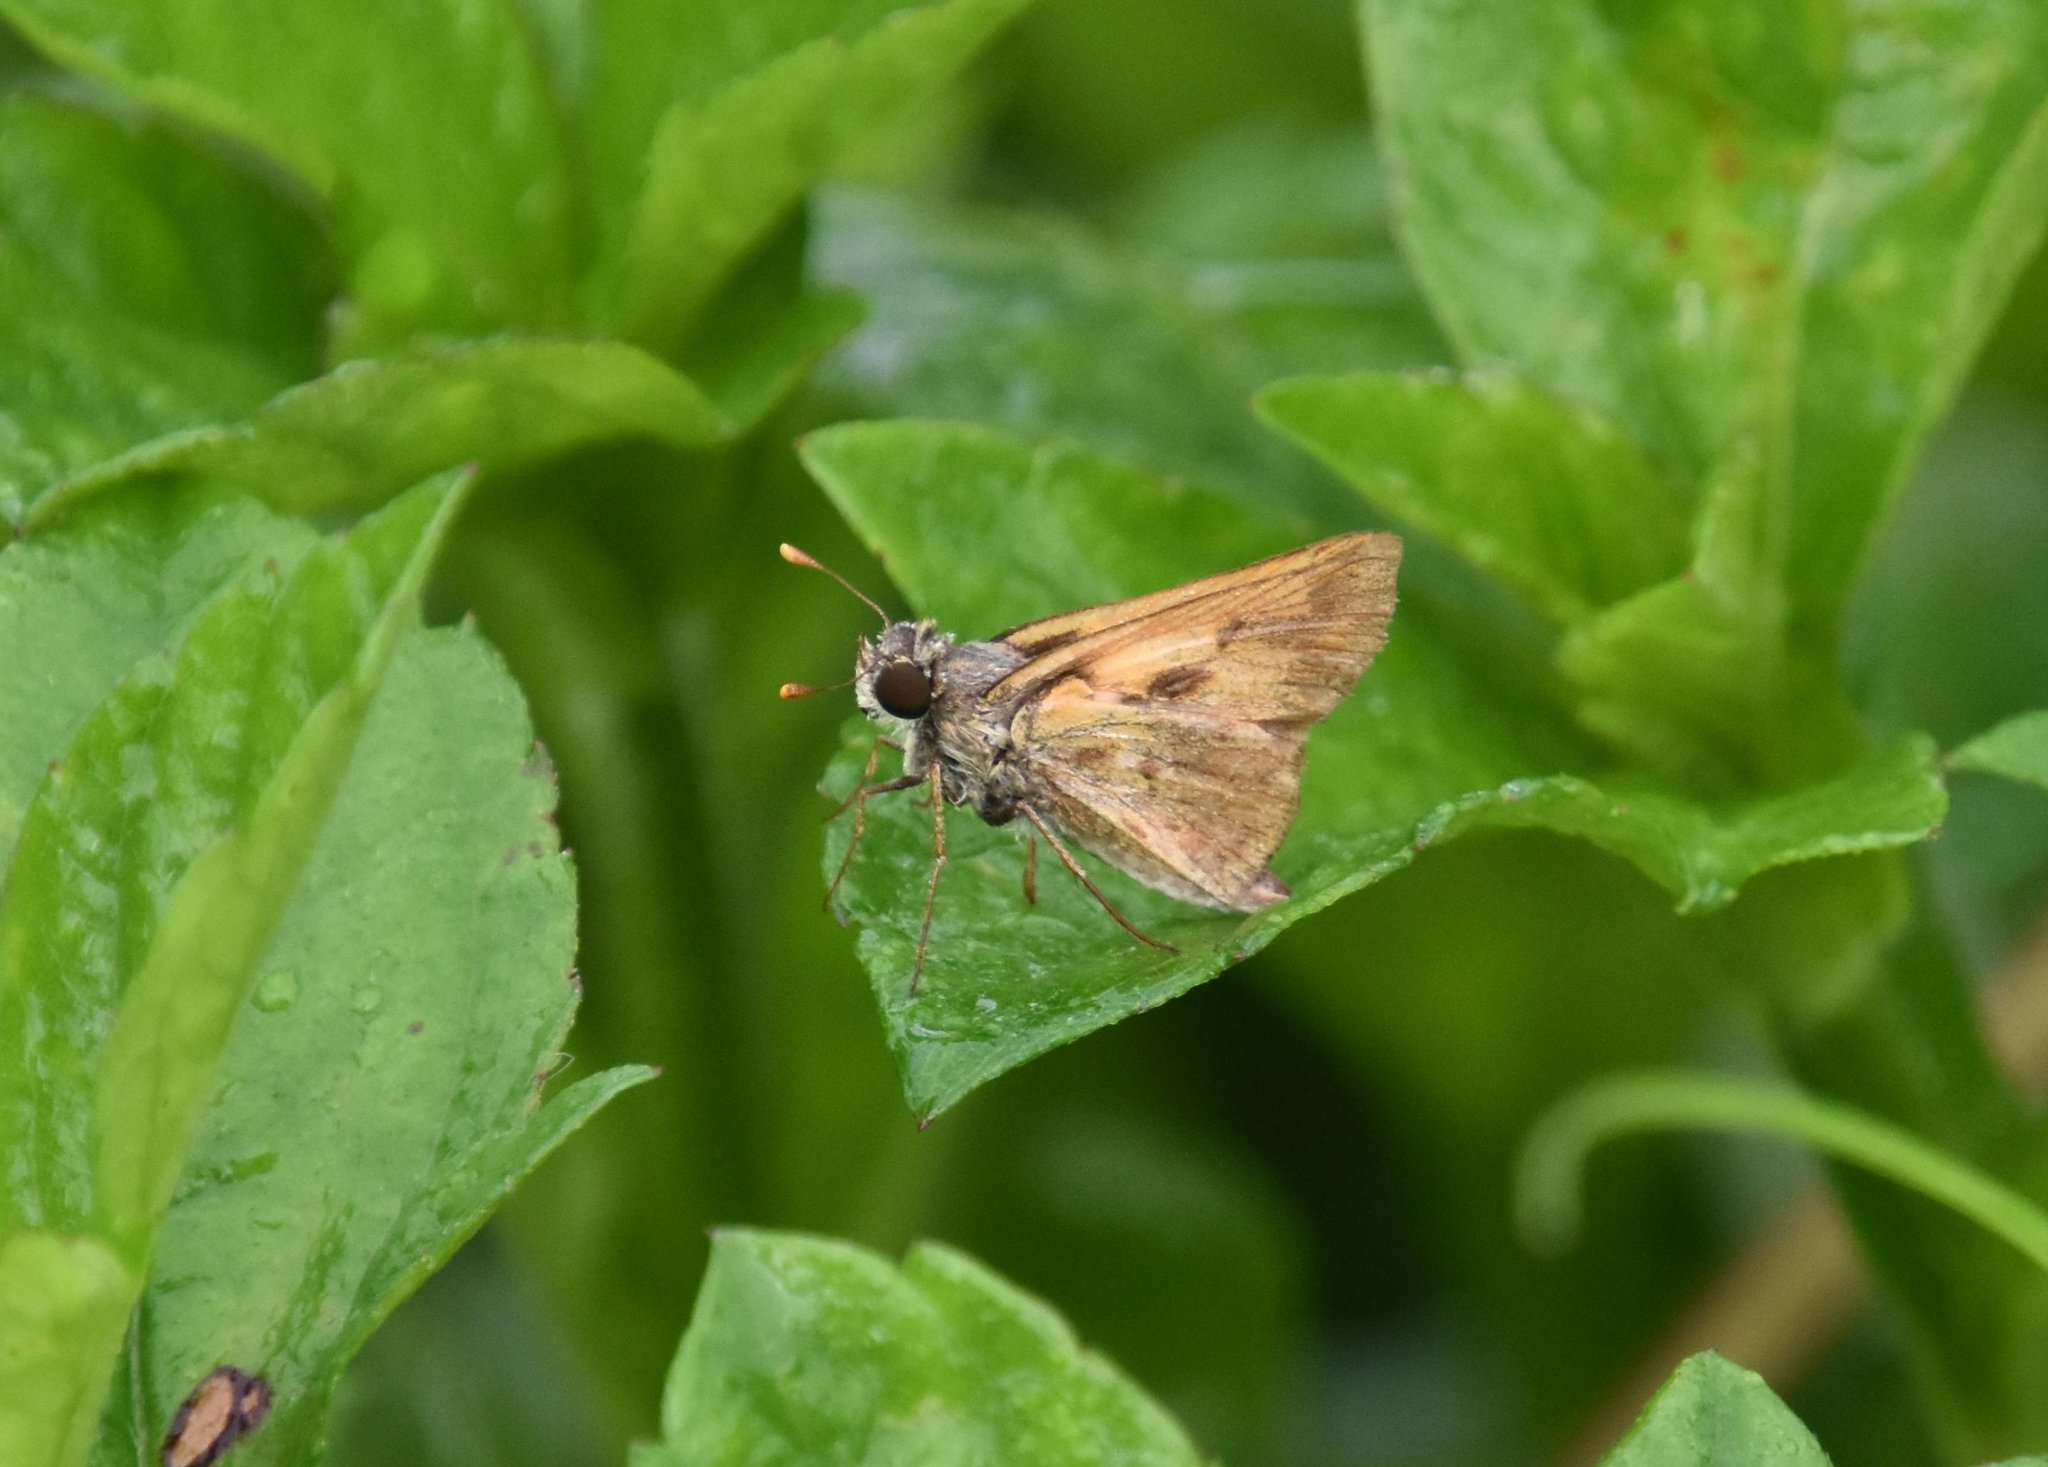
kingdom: Animalia
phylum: Arthropoda
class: Insecta
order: Lepidoptera
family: Hesperiidae
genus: Hylephila
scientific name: Hylephila phyleus
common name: Fiery skipper
